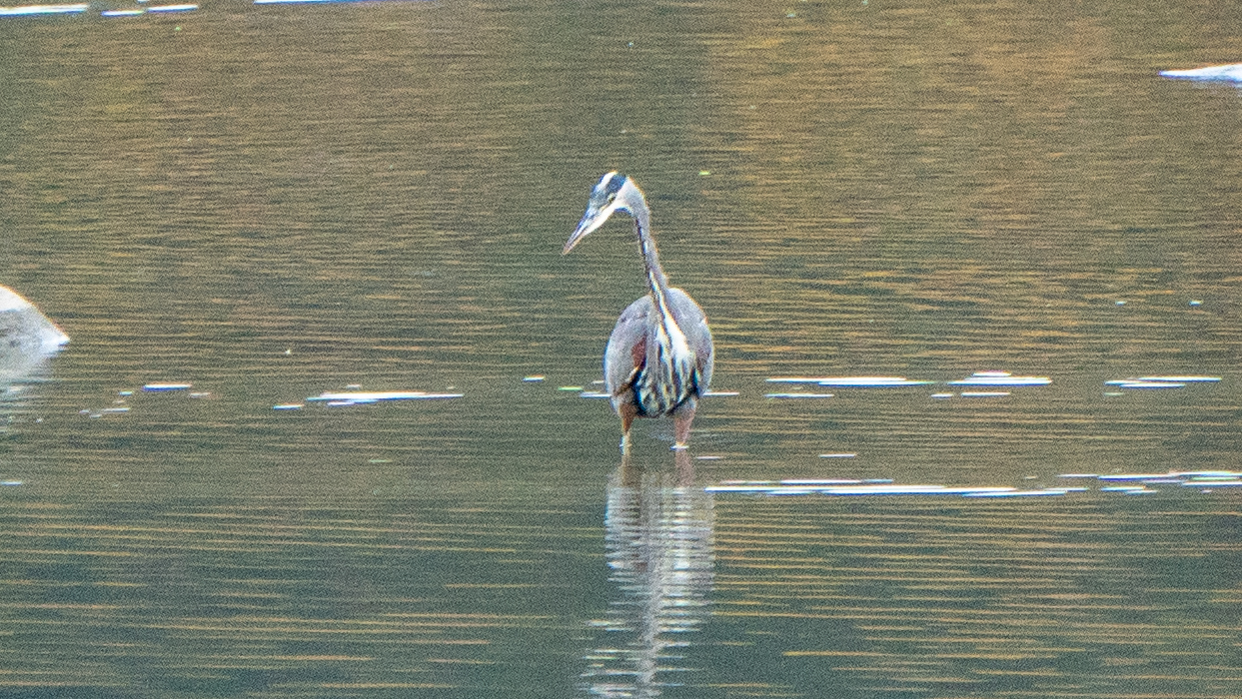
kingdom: Animalia
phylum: Chordata
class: Aves
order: Pelecaniformes
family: Ardeidae
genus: Ardea
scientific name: Ardea herodias
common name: Great blue heron
